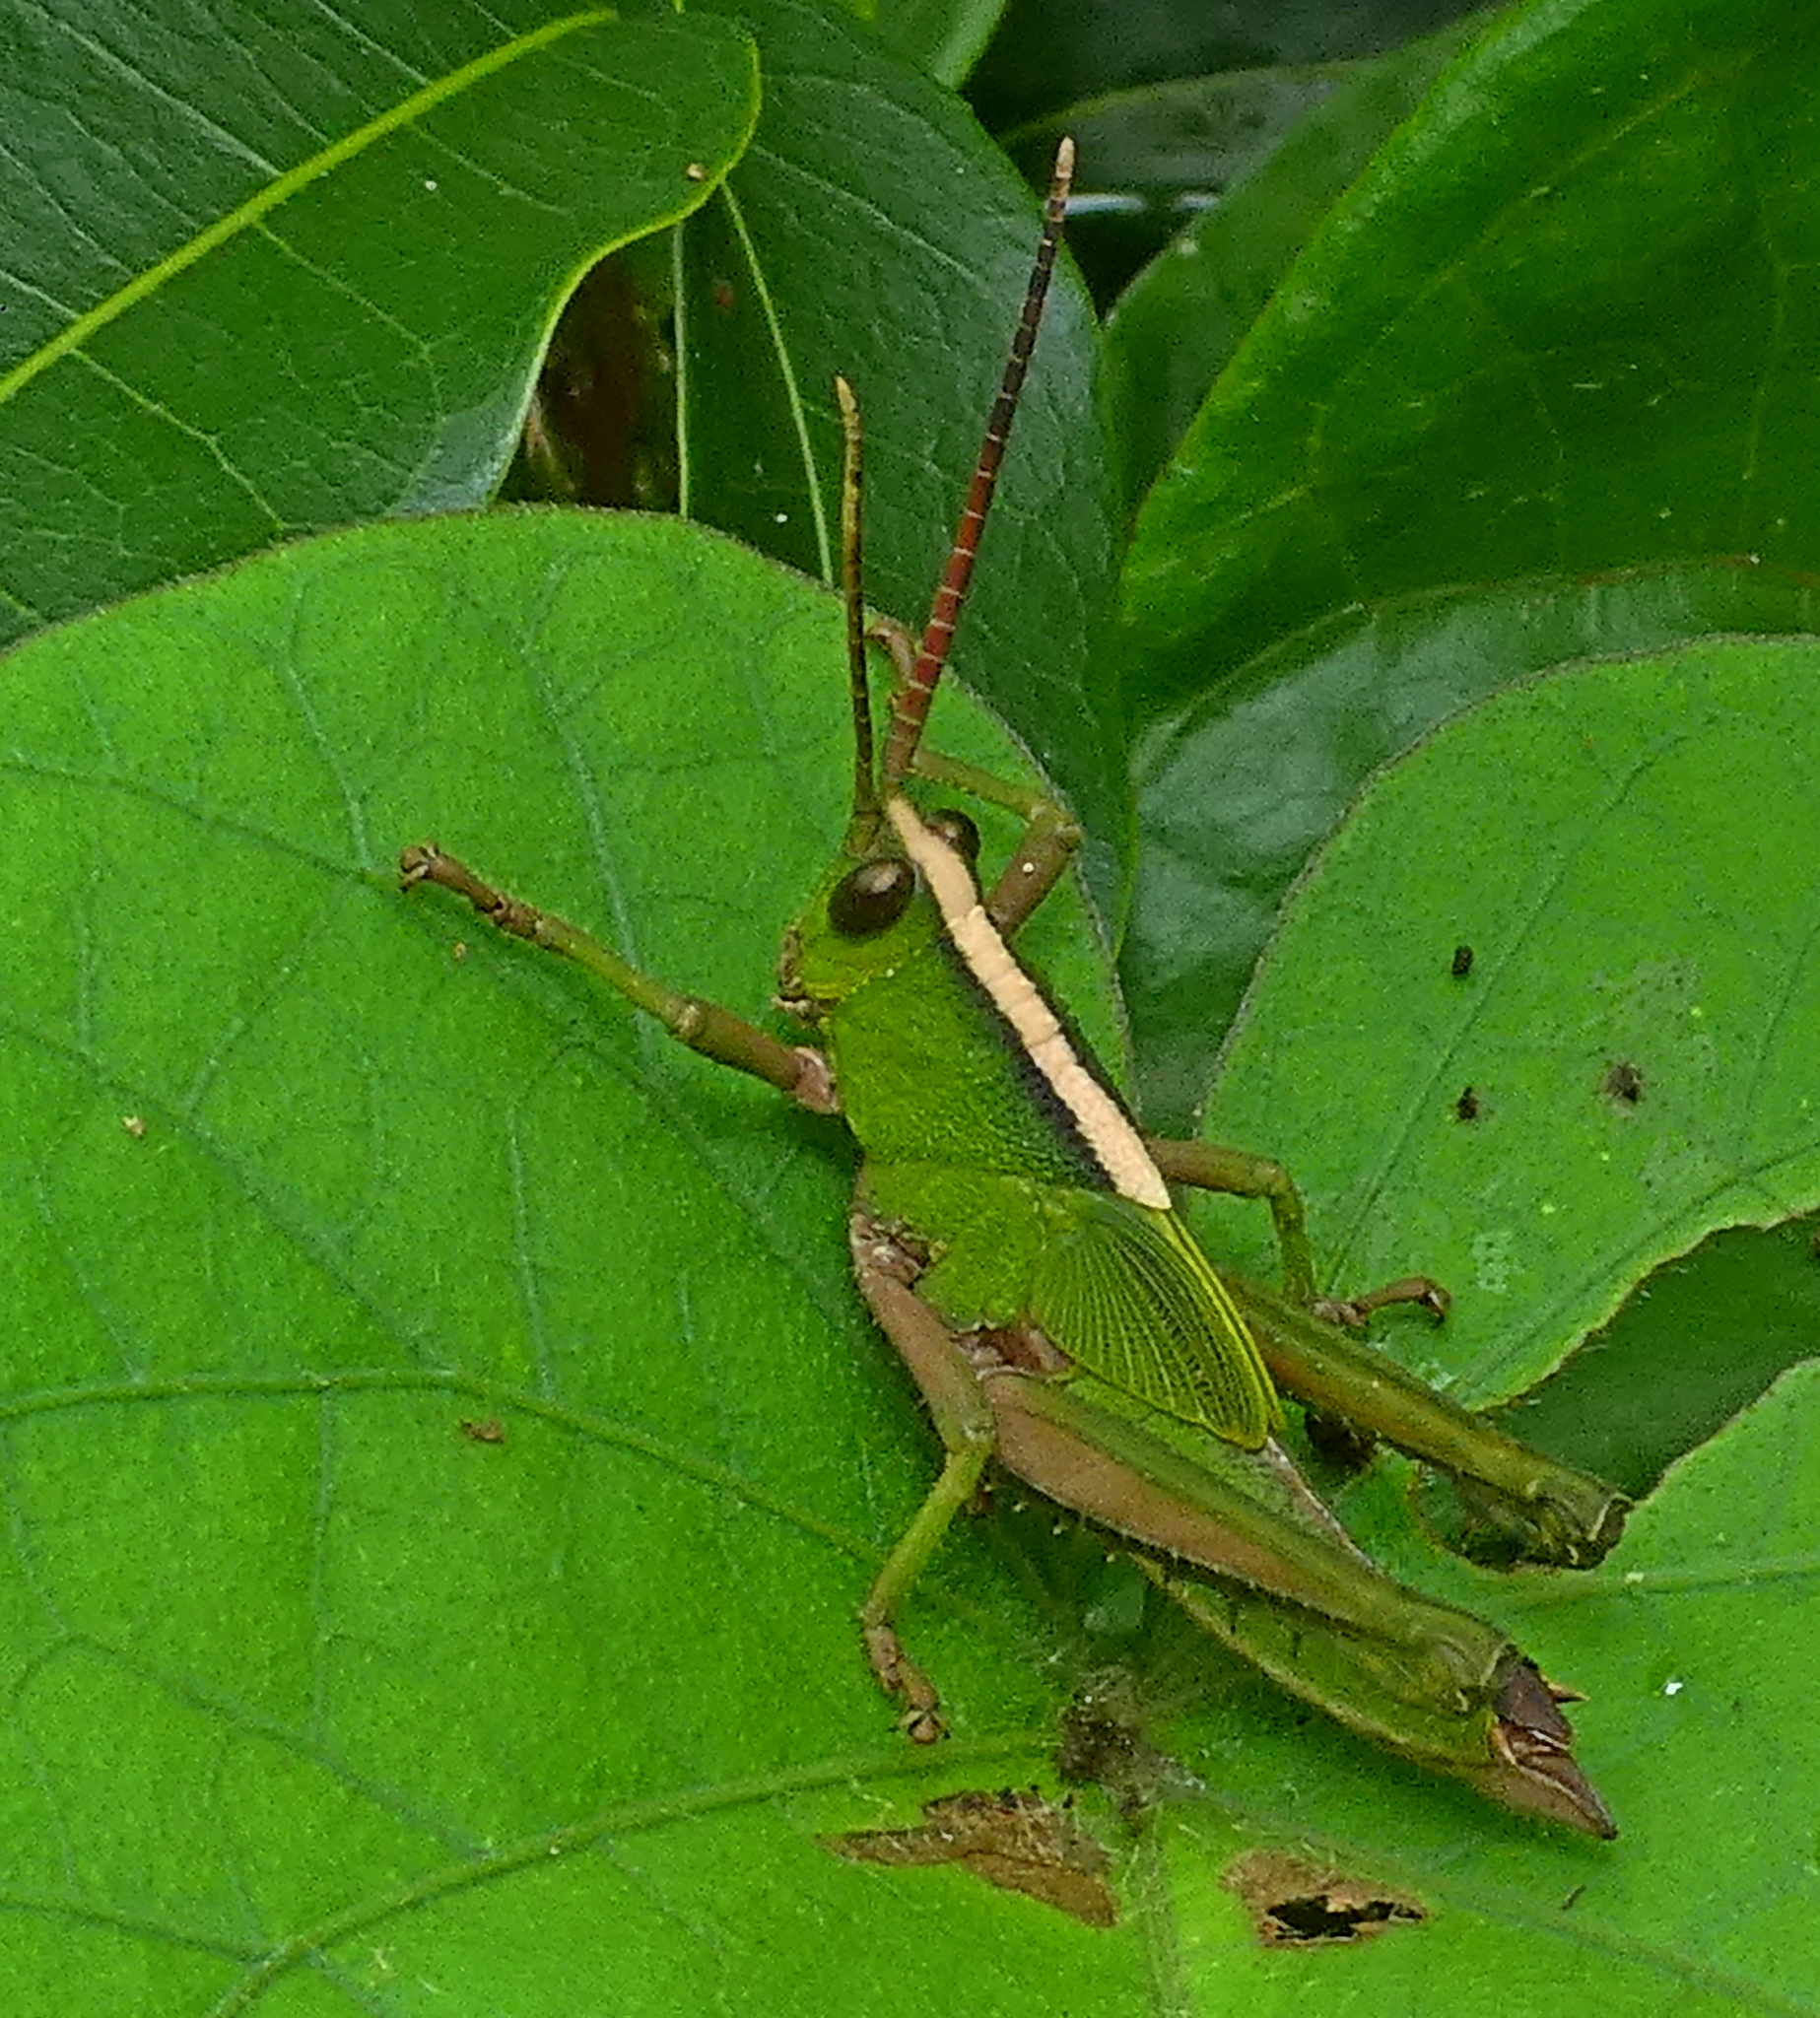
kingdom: Animalia
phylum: Arthropoda
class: Insecta
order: Orthoptera
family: Romaleidae
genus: Agriacris
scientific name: Agriacris auripennis
